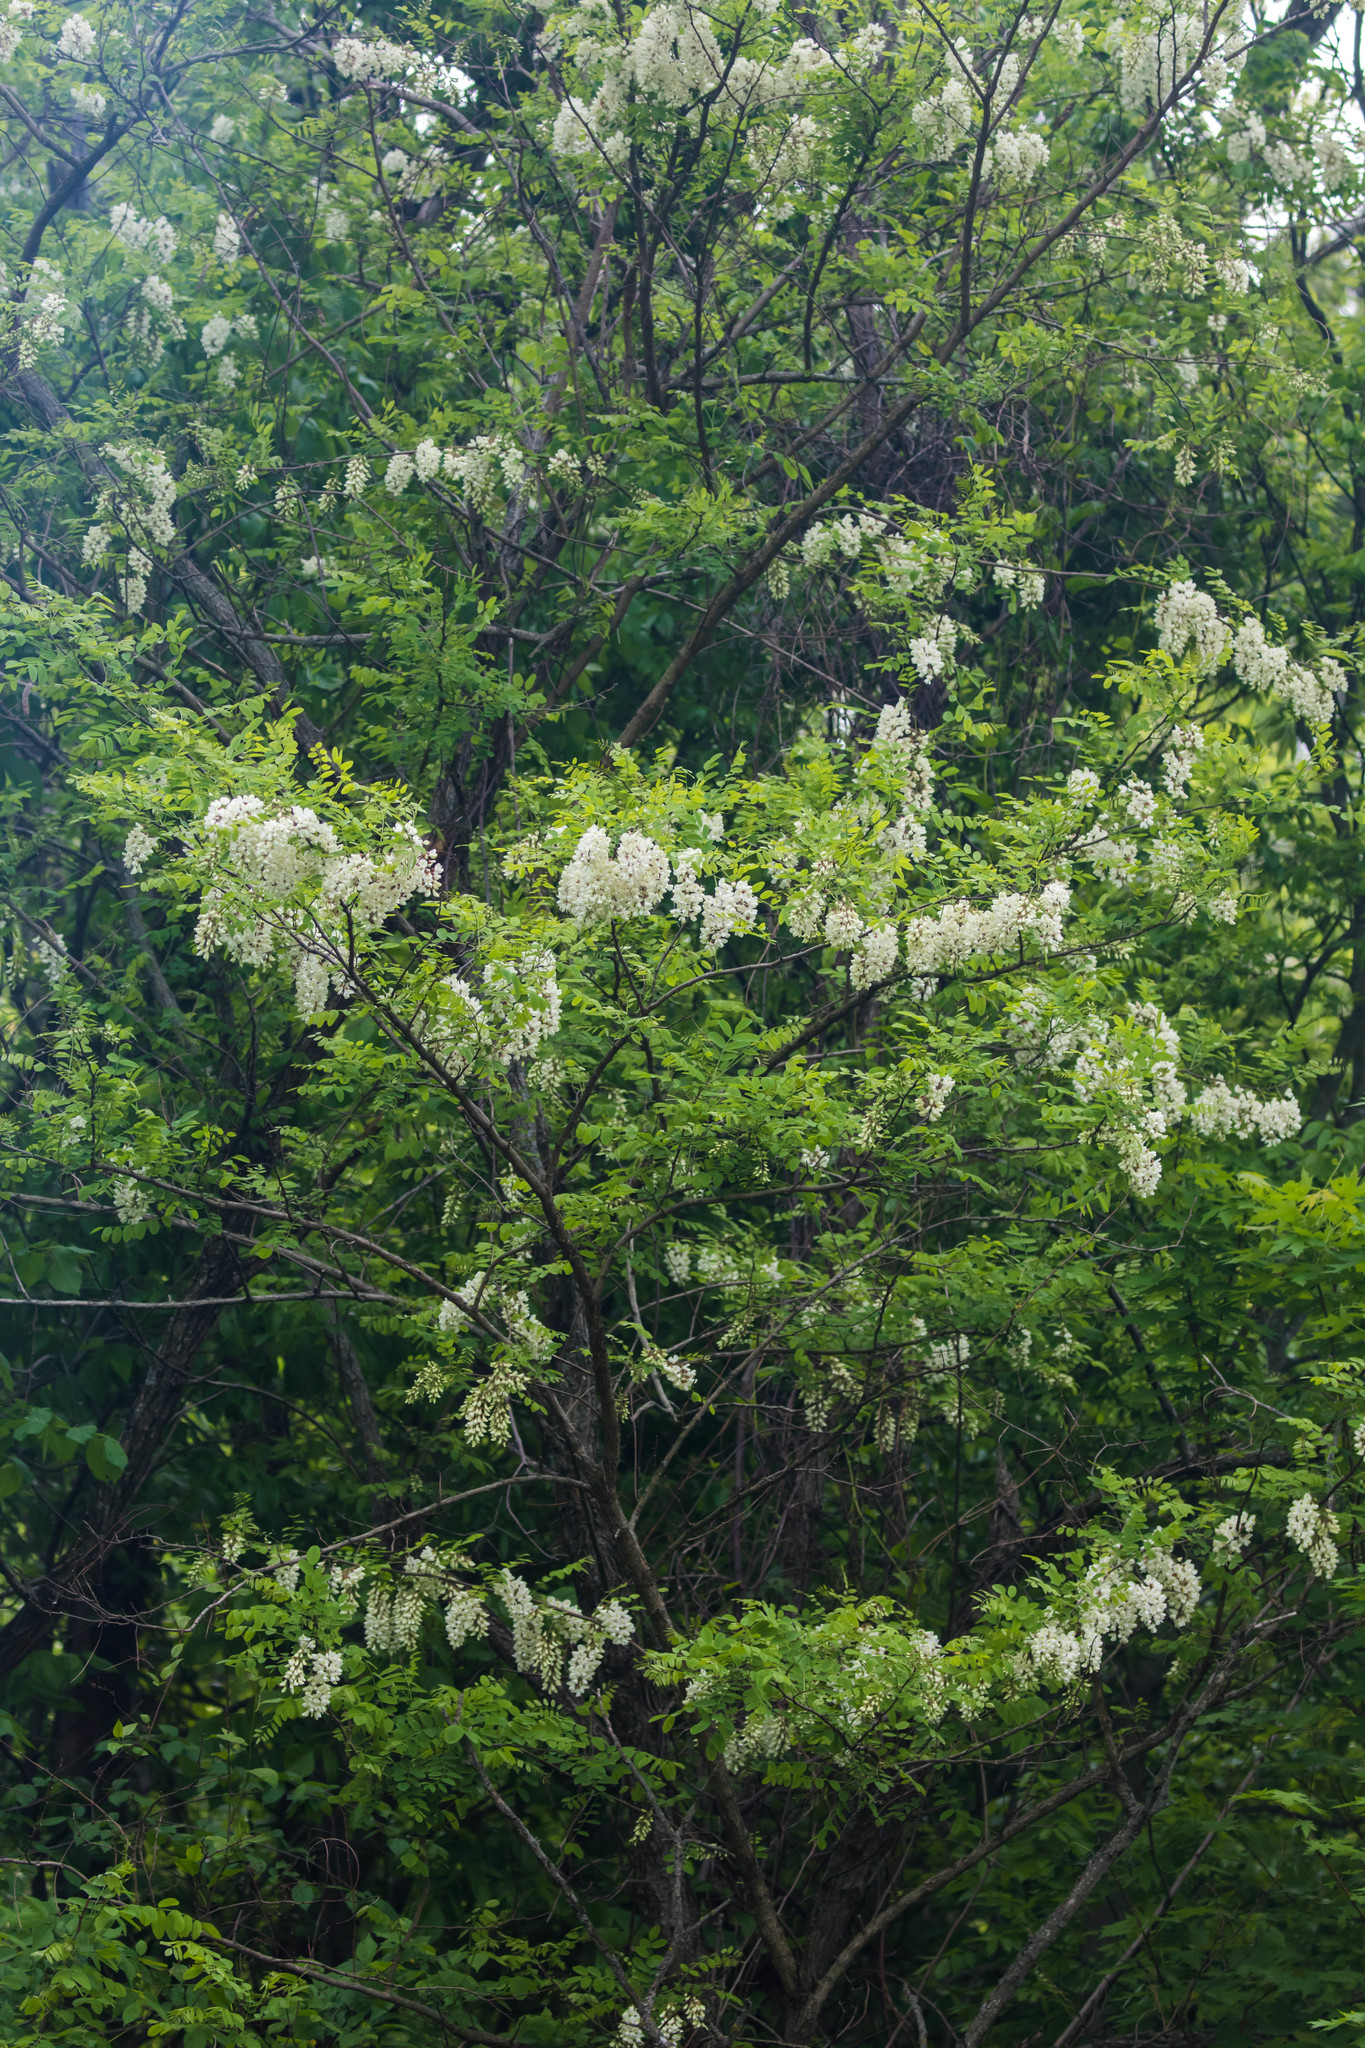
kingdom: Plantae
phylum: Tracheophyta
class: Magnoliopsida
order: Fabales
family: Fabaceae
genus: Robinia
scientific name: Robinia pseudoacacia
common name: Black locust
